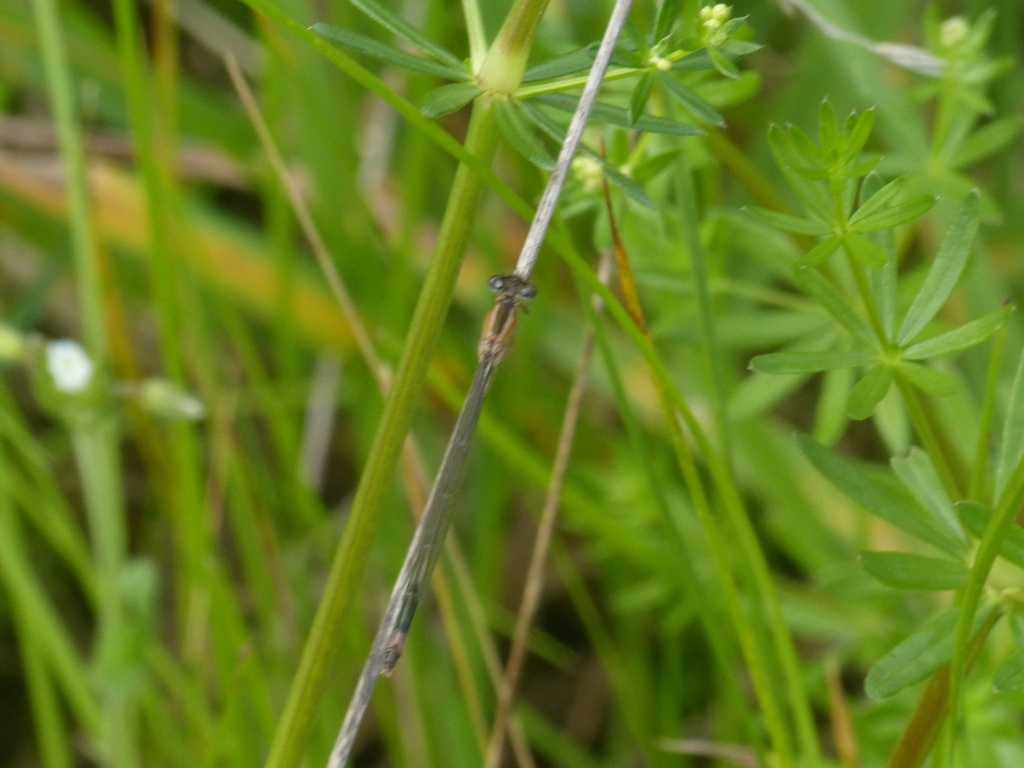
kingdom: Animalia
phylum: Arthropoda
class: Insecta
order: Odonata
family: Coenagrionidae
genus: Ischnura
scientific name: Ischnura elegans
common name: Blue-tailed damselfly
